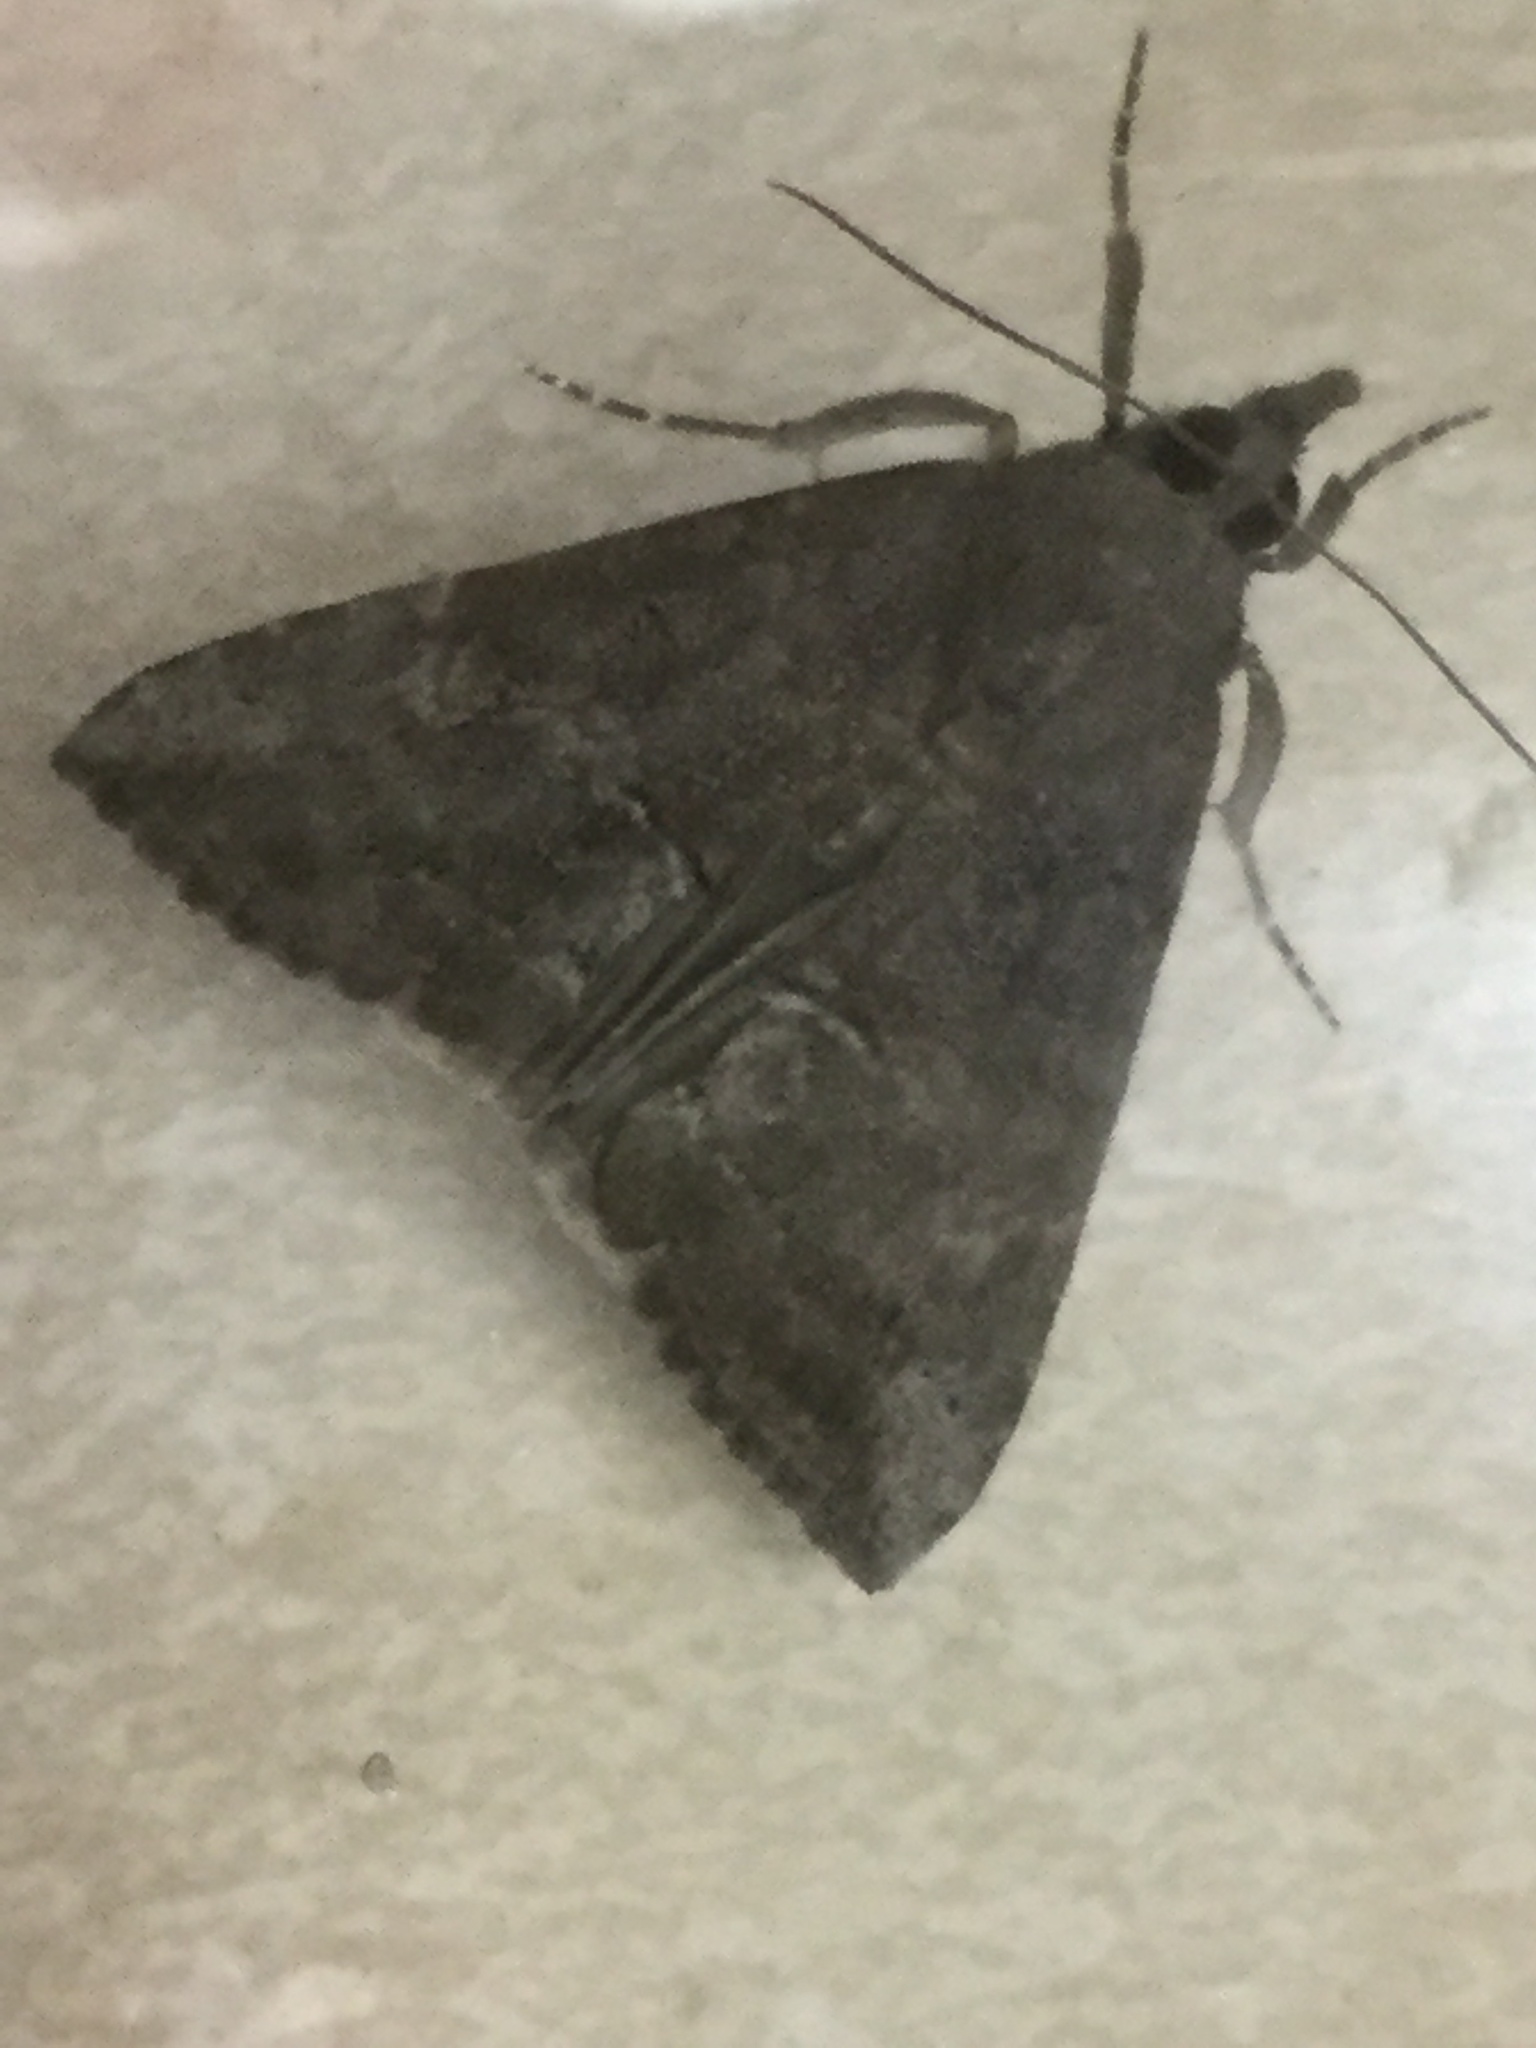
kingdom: Animalia
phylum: Arthropoda
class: Insecta
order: Lepidoptera
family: Erebidae
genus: Hypena
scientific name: Hypena scabra
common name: Green cloverworm
